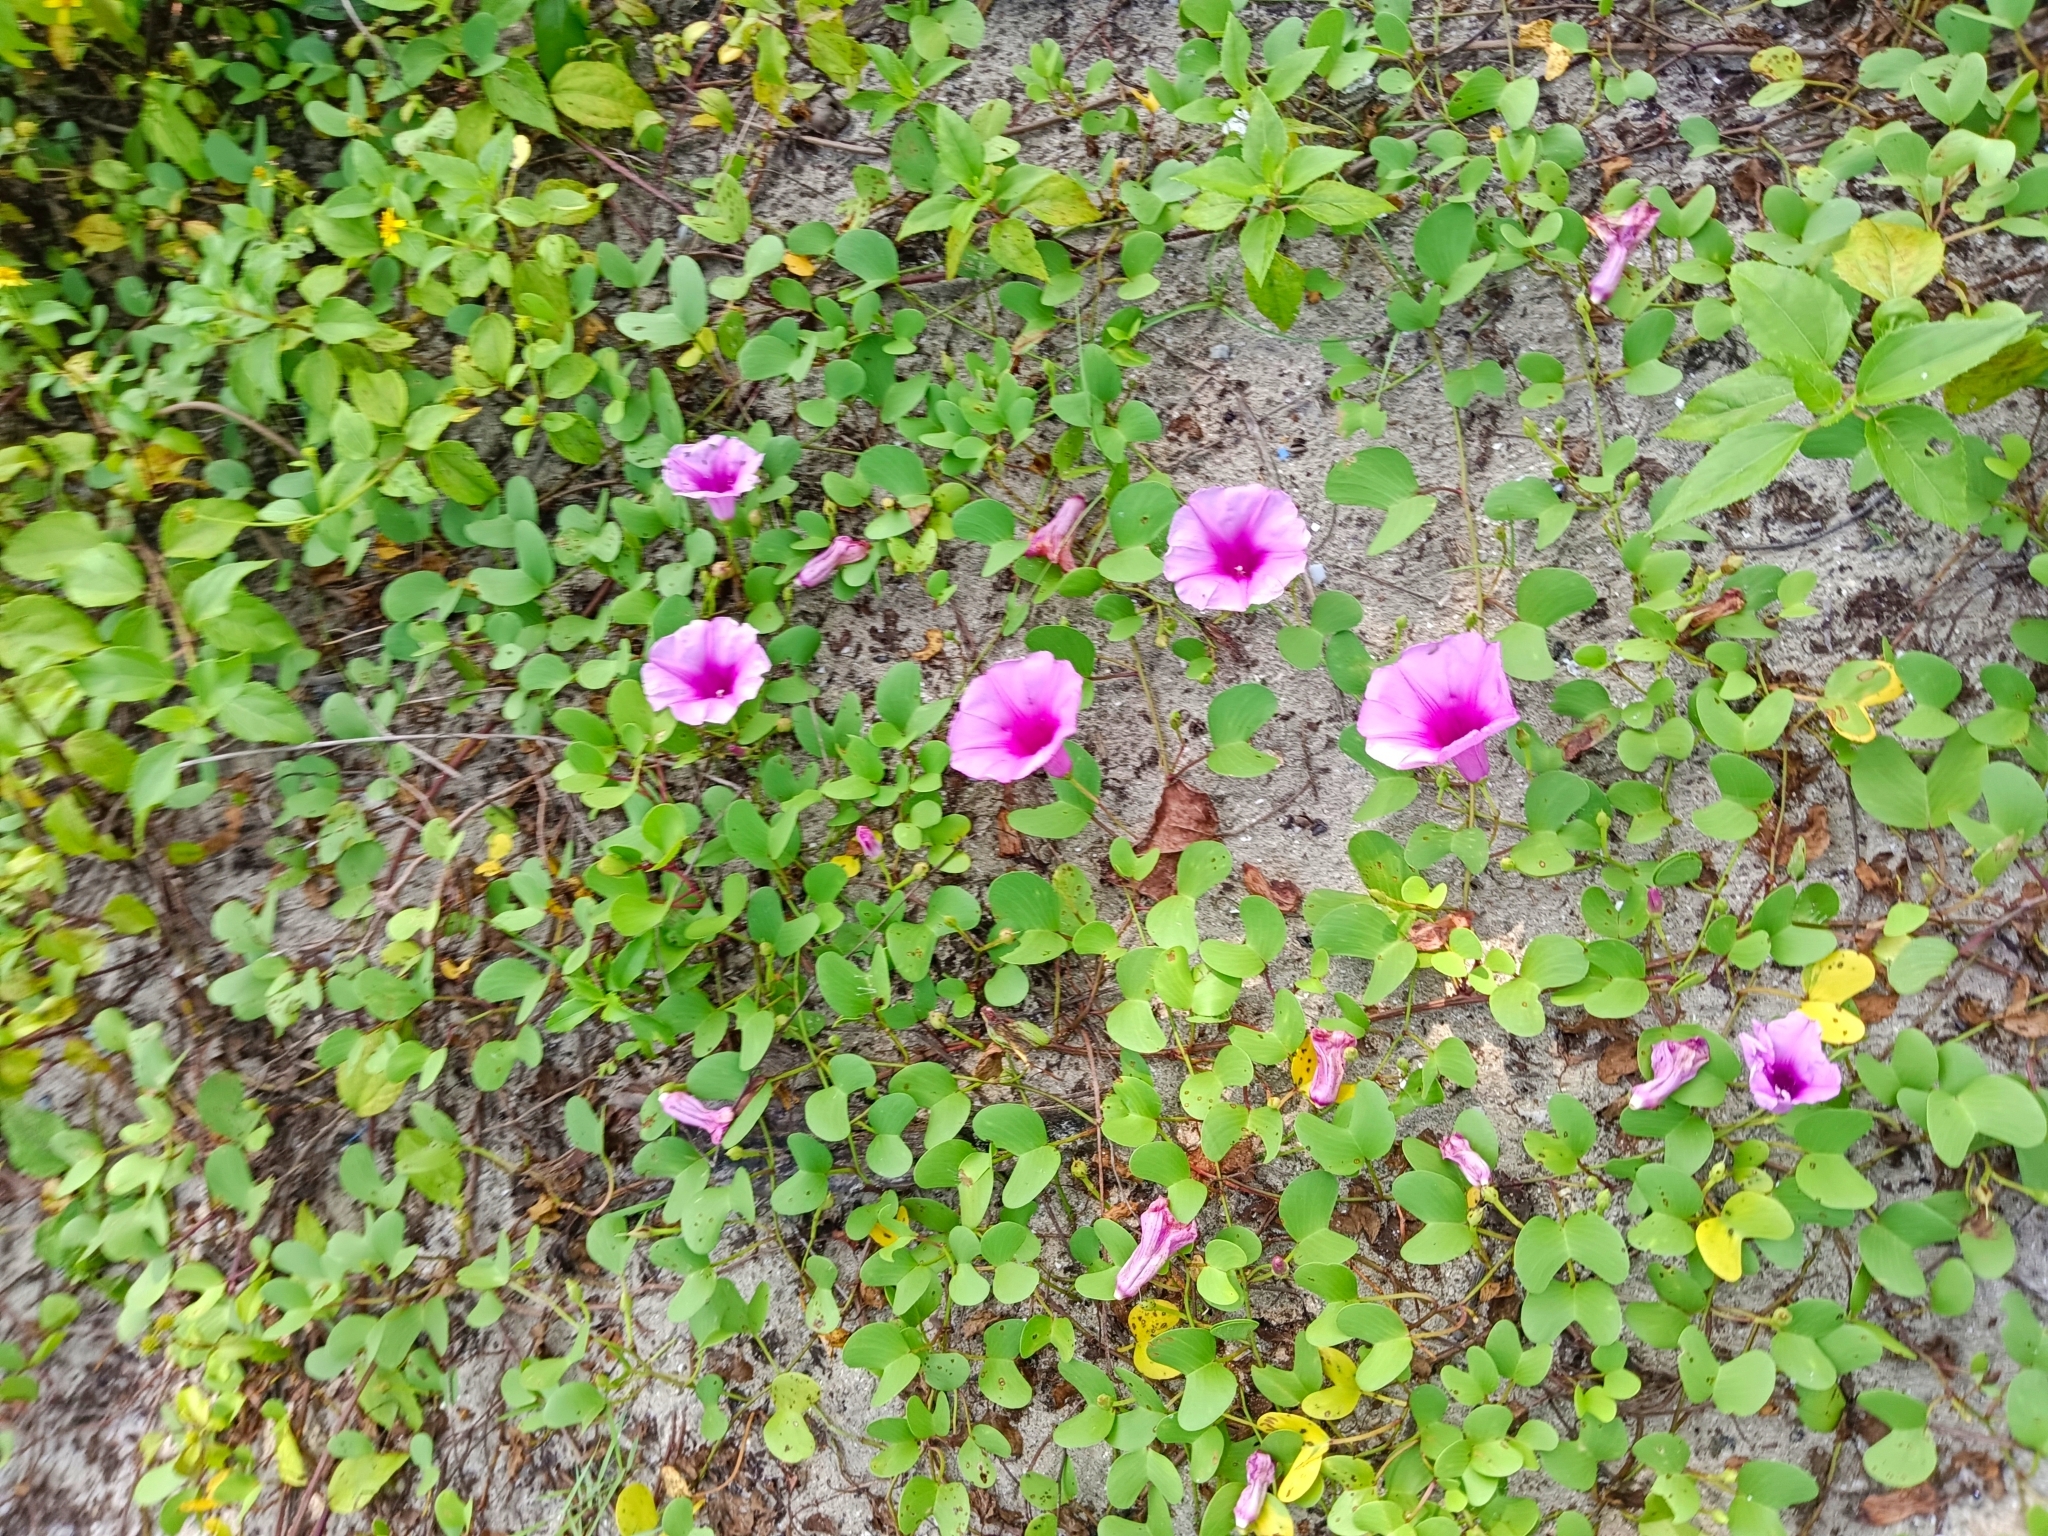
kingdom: Plantae
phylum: Tracheophyta
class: Magnoliopsida
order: Solanales
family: Convolvulaceae
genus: Ipomoea
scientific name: Ipomoea pes-caprae
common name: Beach morning glory
